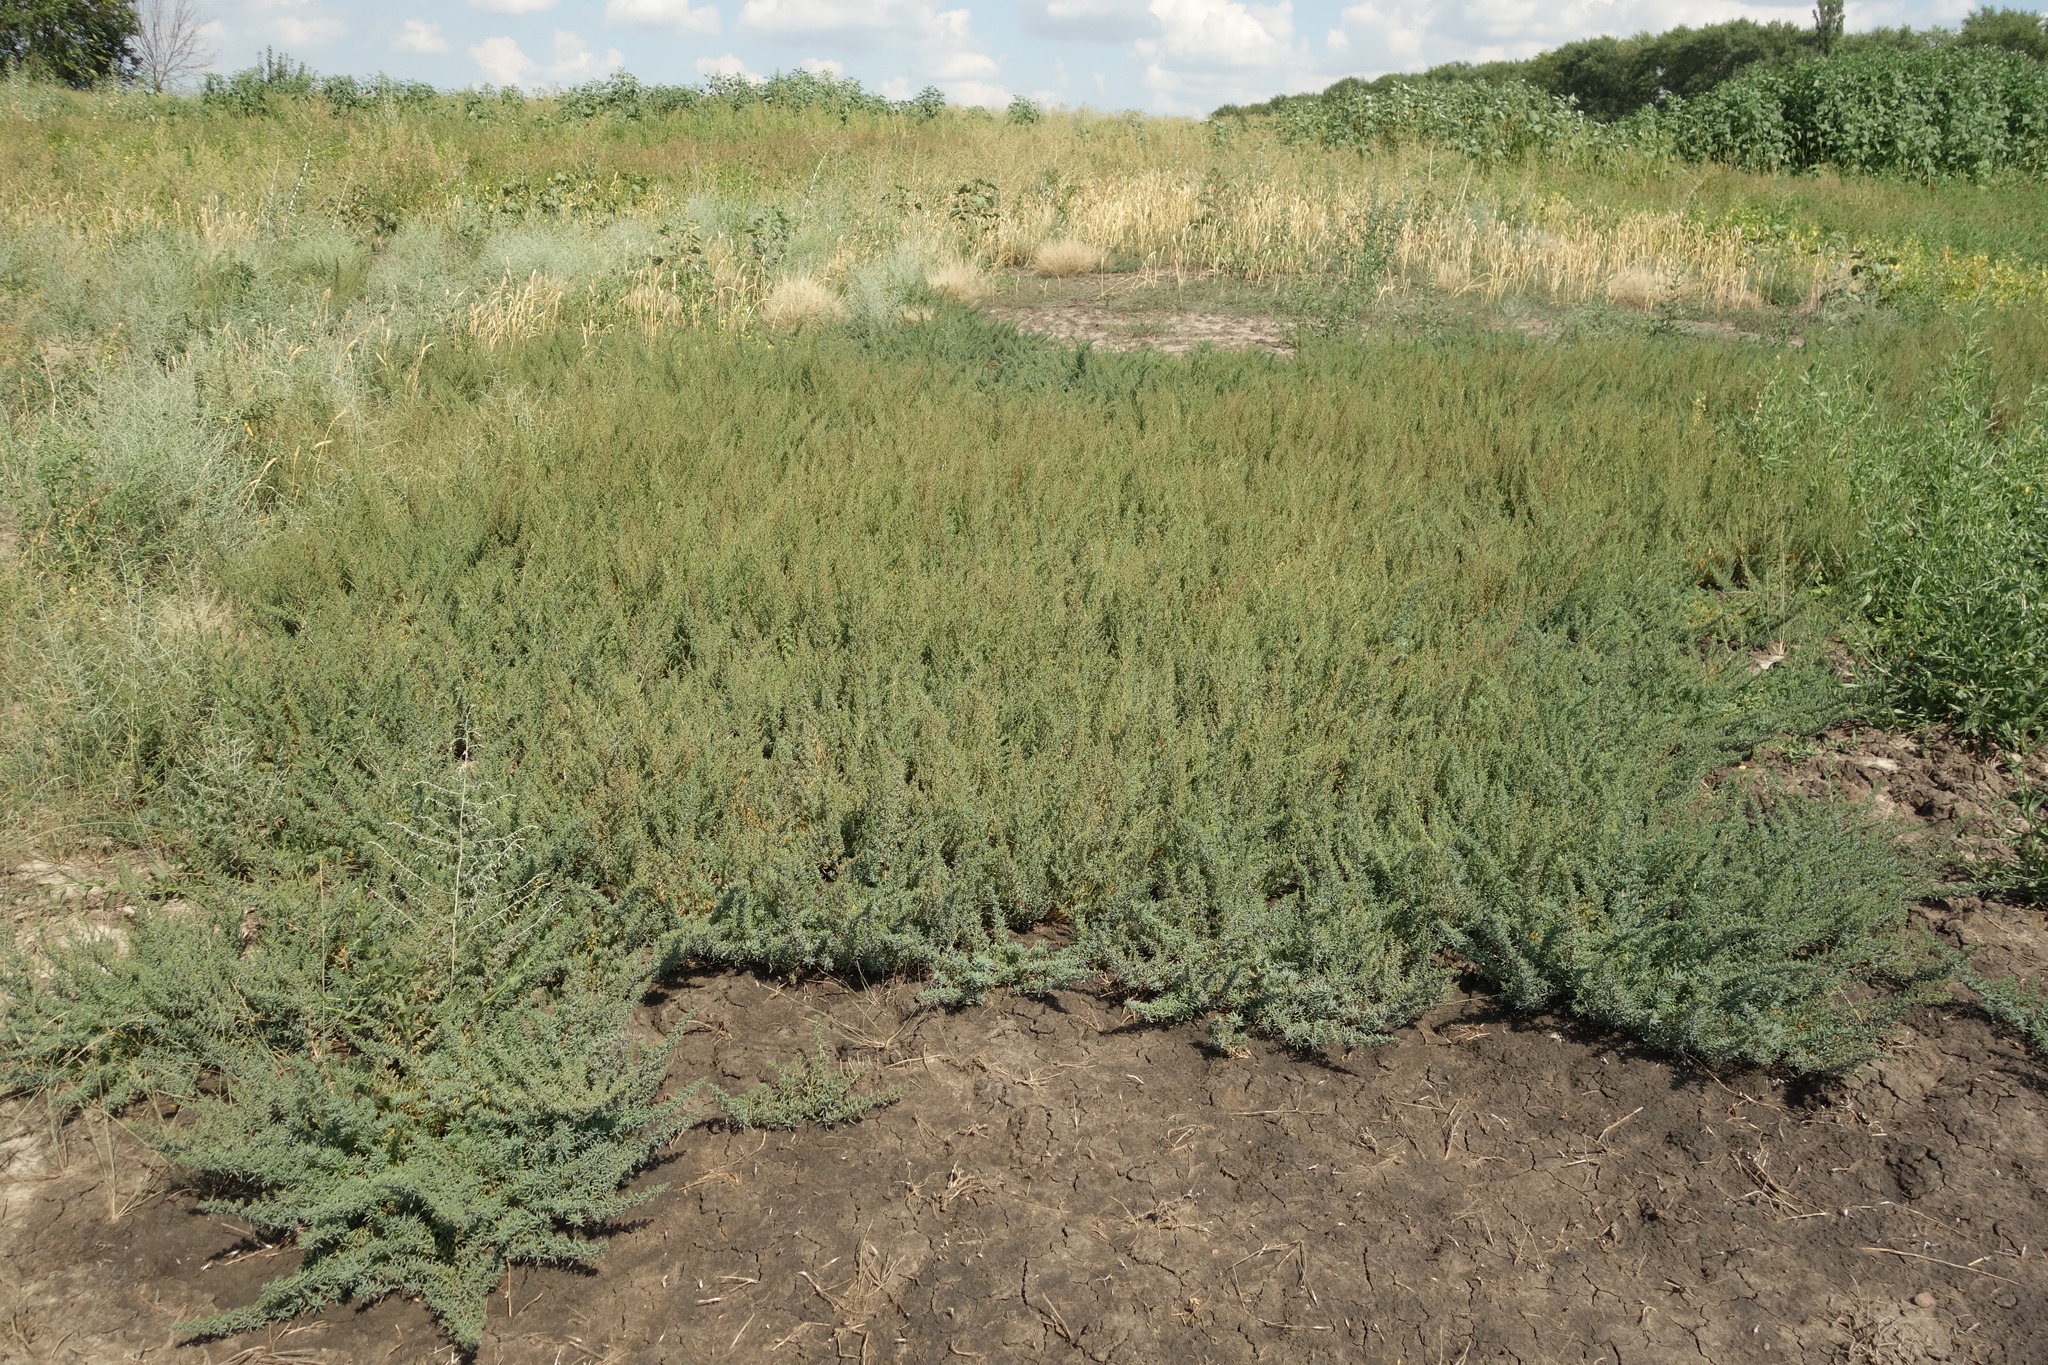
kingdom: Plantae
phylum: Tracheophyta
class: Magnoliopsida
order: Caryophyllales
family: Amaranthaceae
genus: Suaeda
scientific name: Suaeda prostrata
